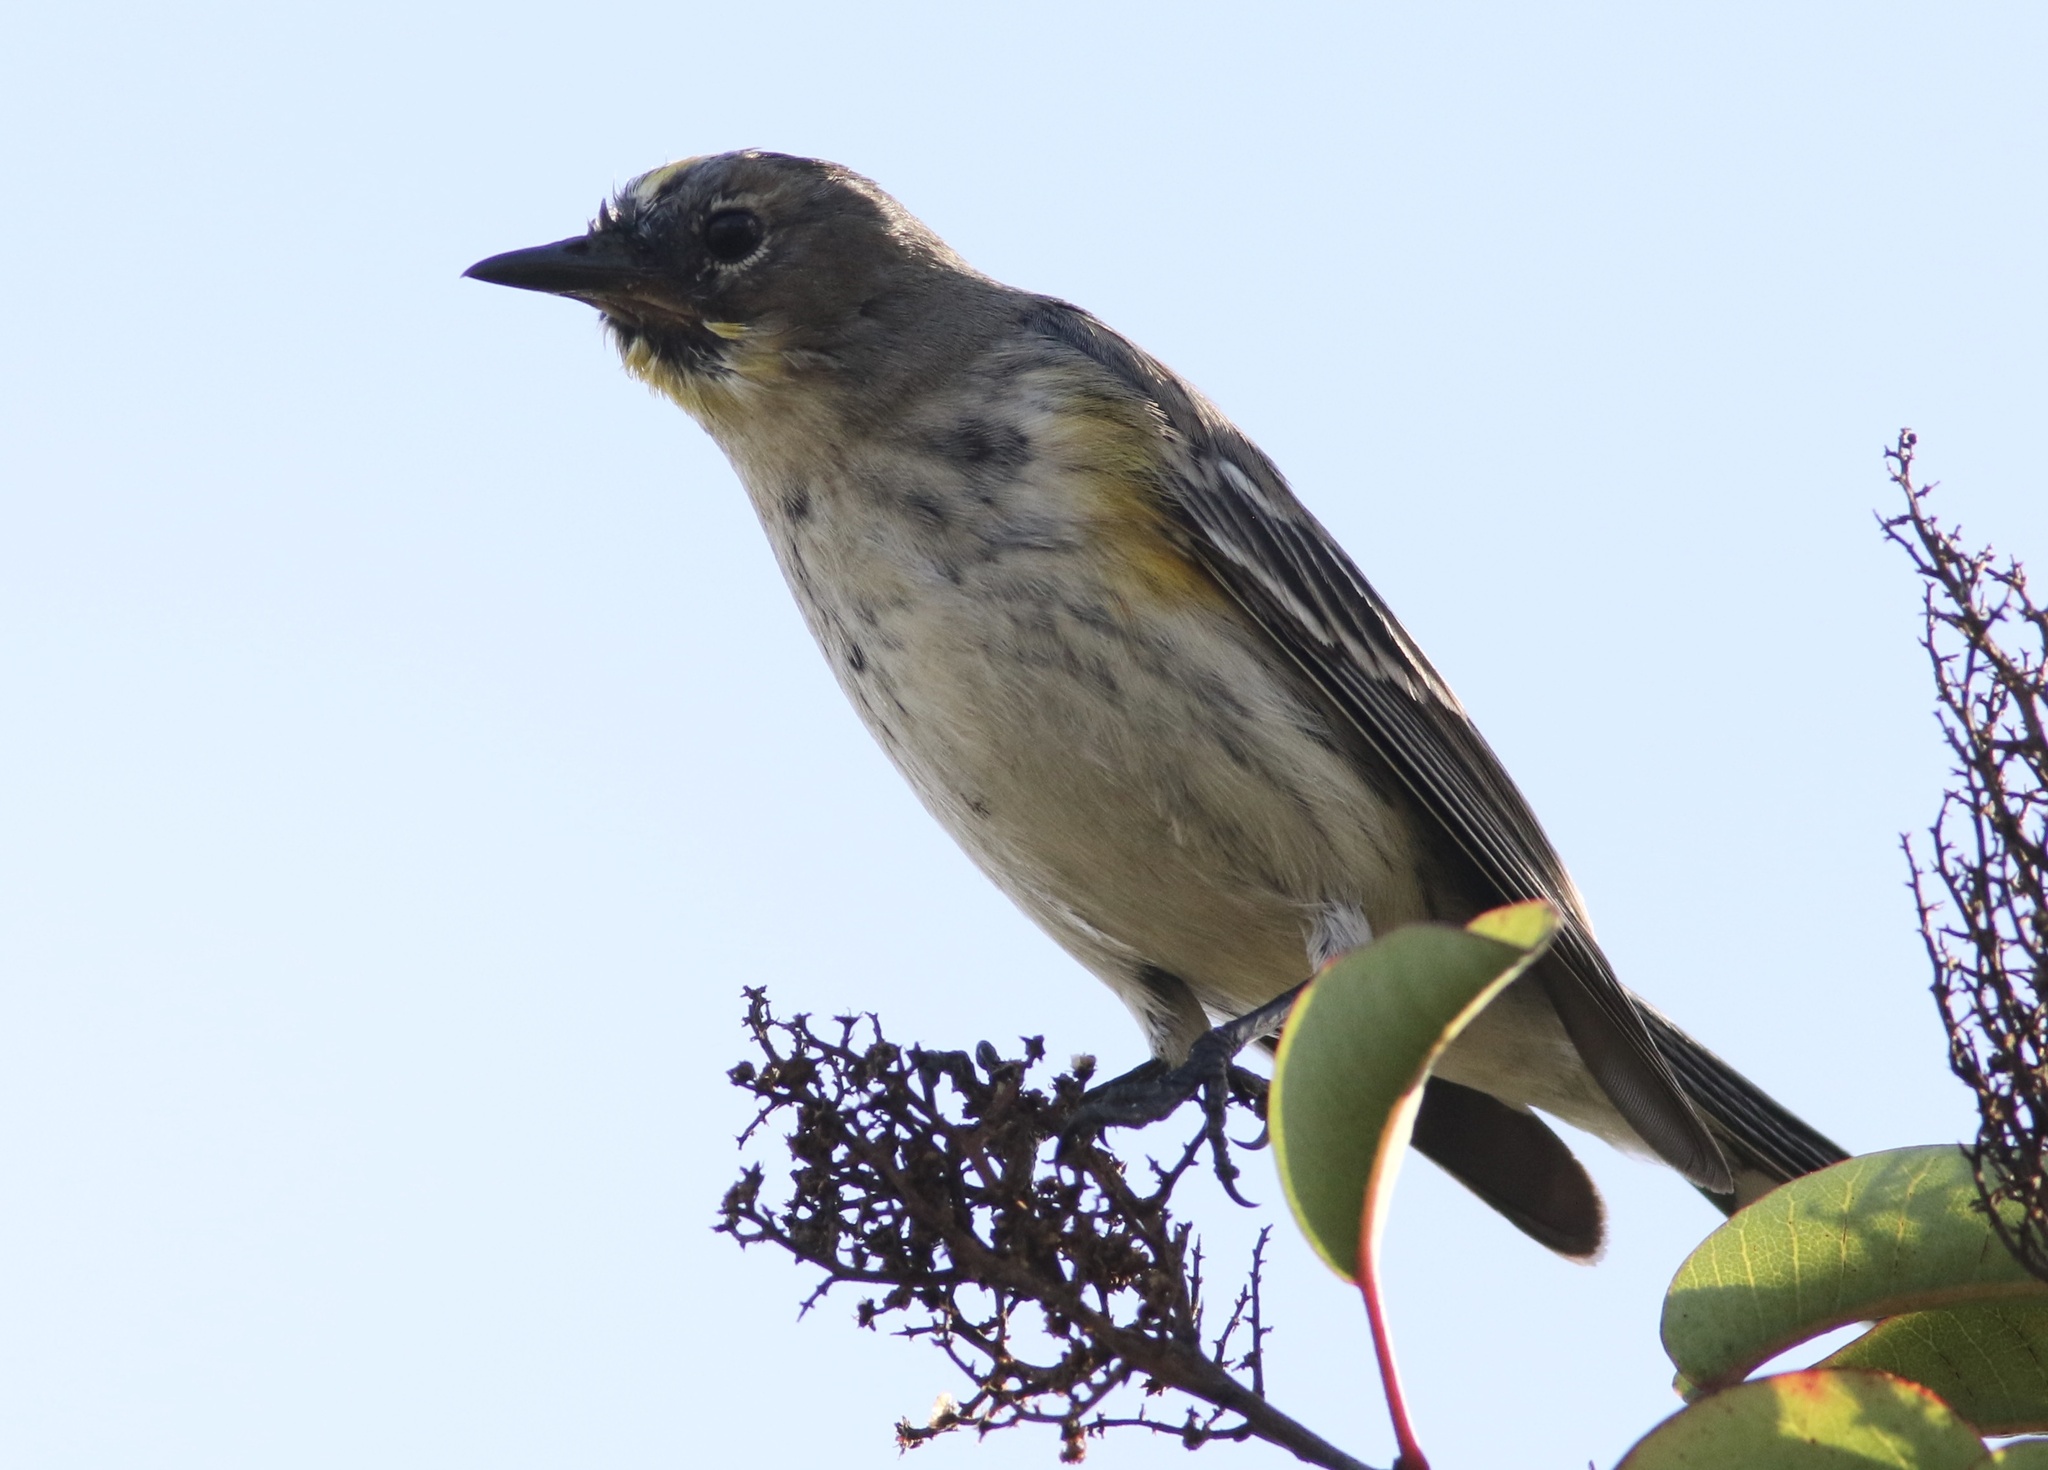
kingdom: Animalia
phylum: Chordata
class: Aves
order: Passeriformes
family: Parulidae
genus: Setophaga
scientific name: Setophaga coronata
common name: Myrtle warbler
